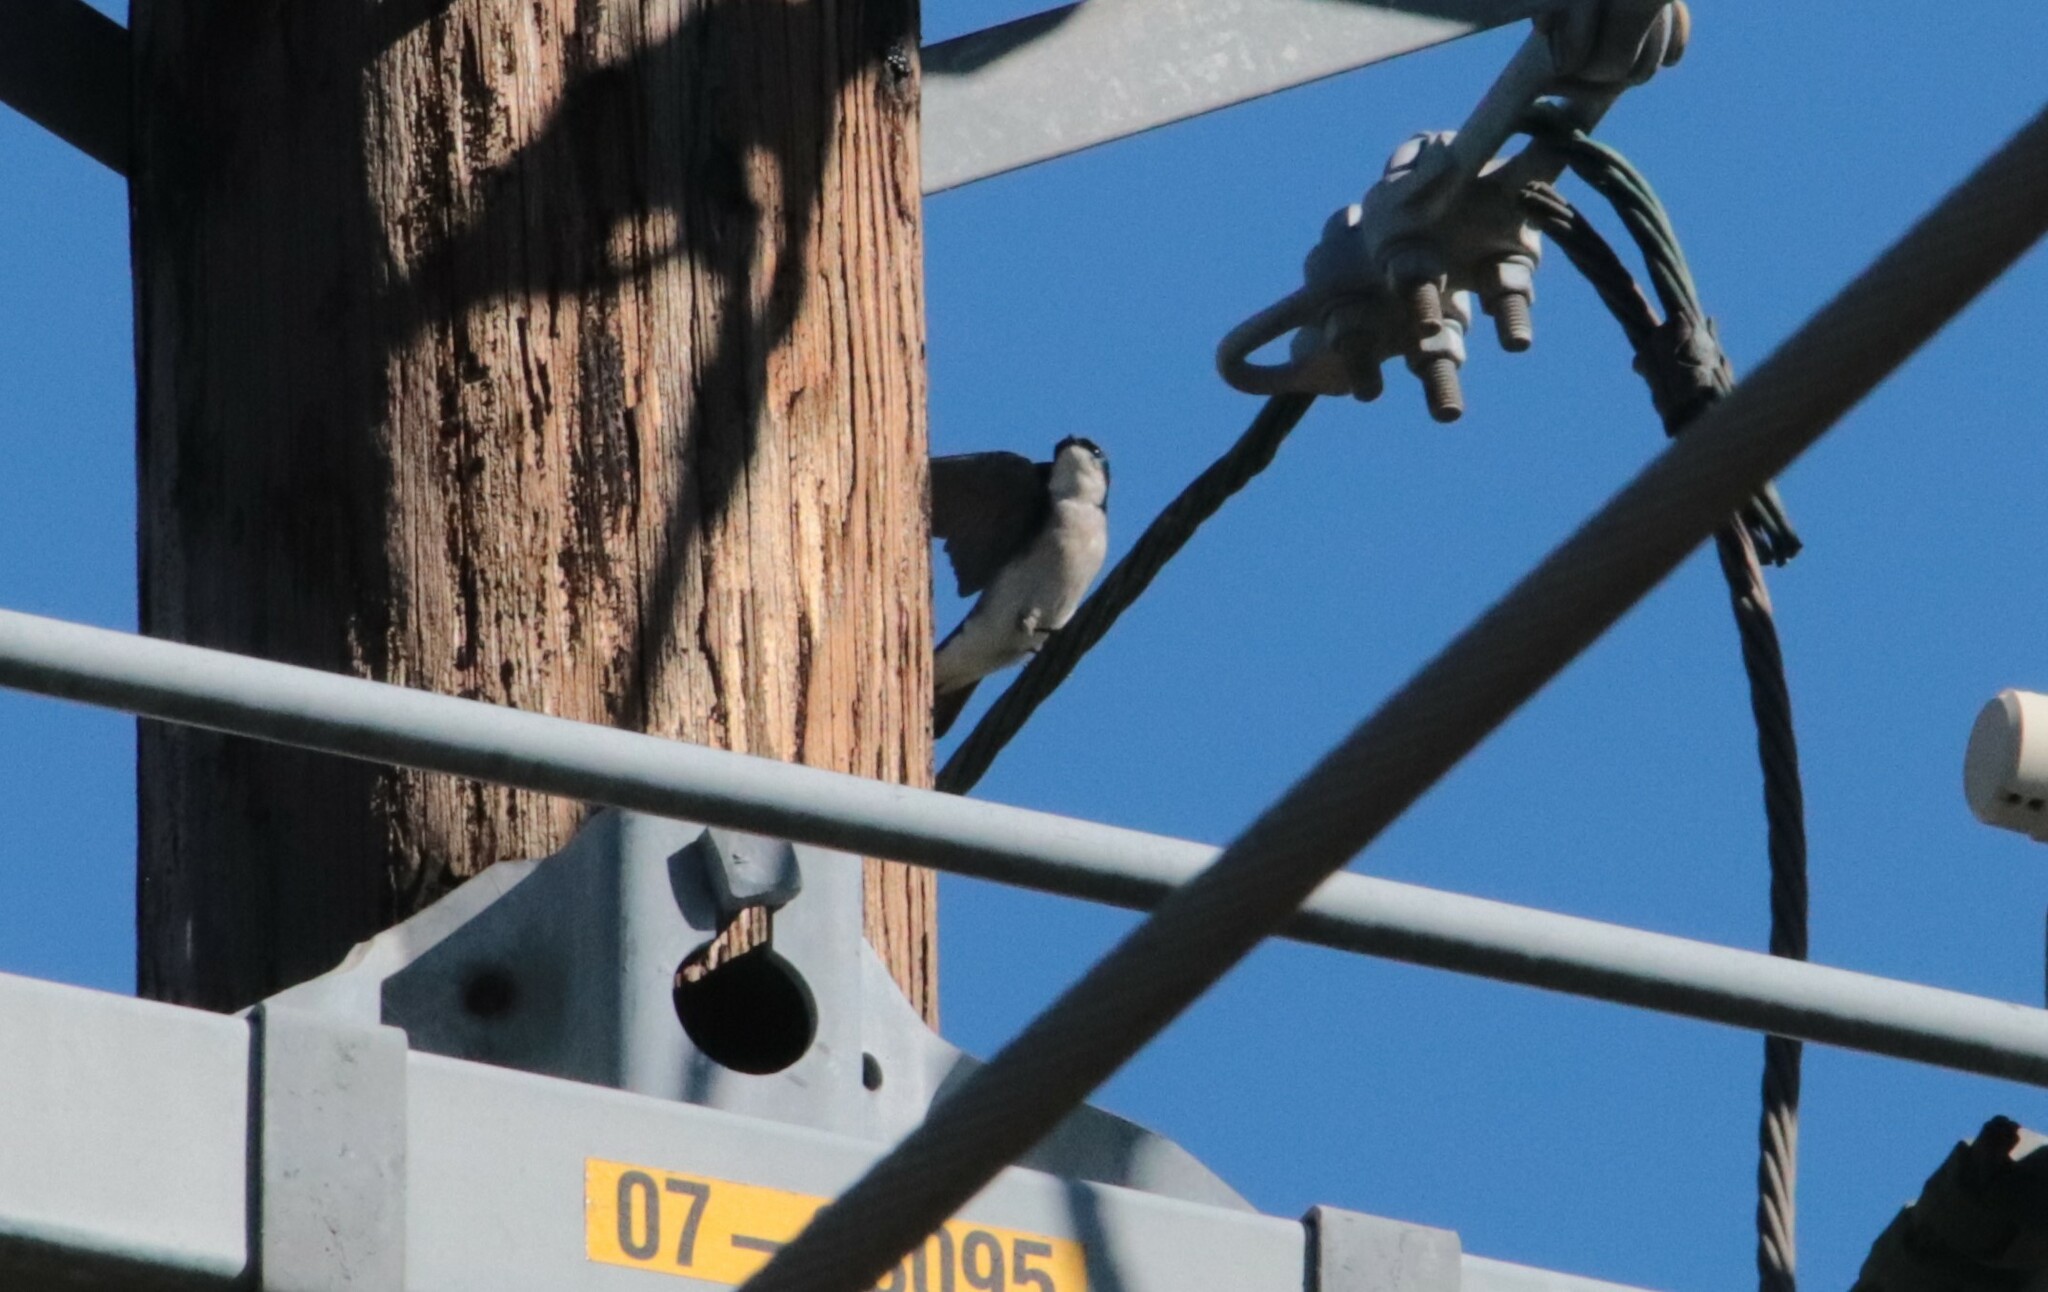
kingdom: Animalia
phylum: Chordata
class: Aves
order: Passeriformes
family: Hirundinidae
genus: Tachycineta
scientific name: Tachycineta bicolor
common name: Tree swallow
